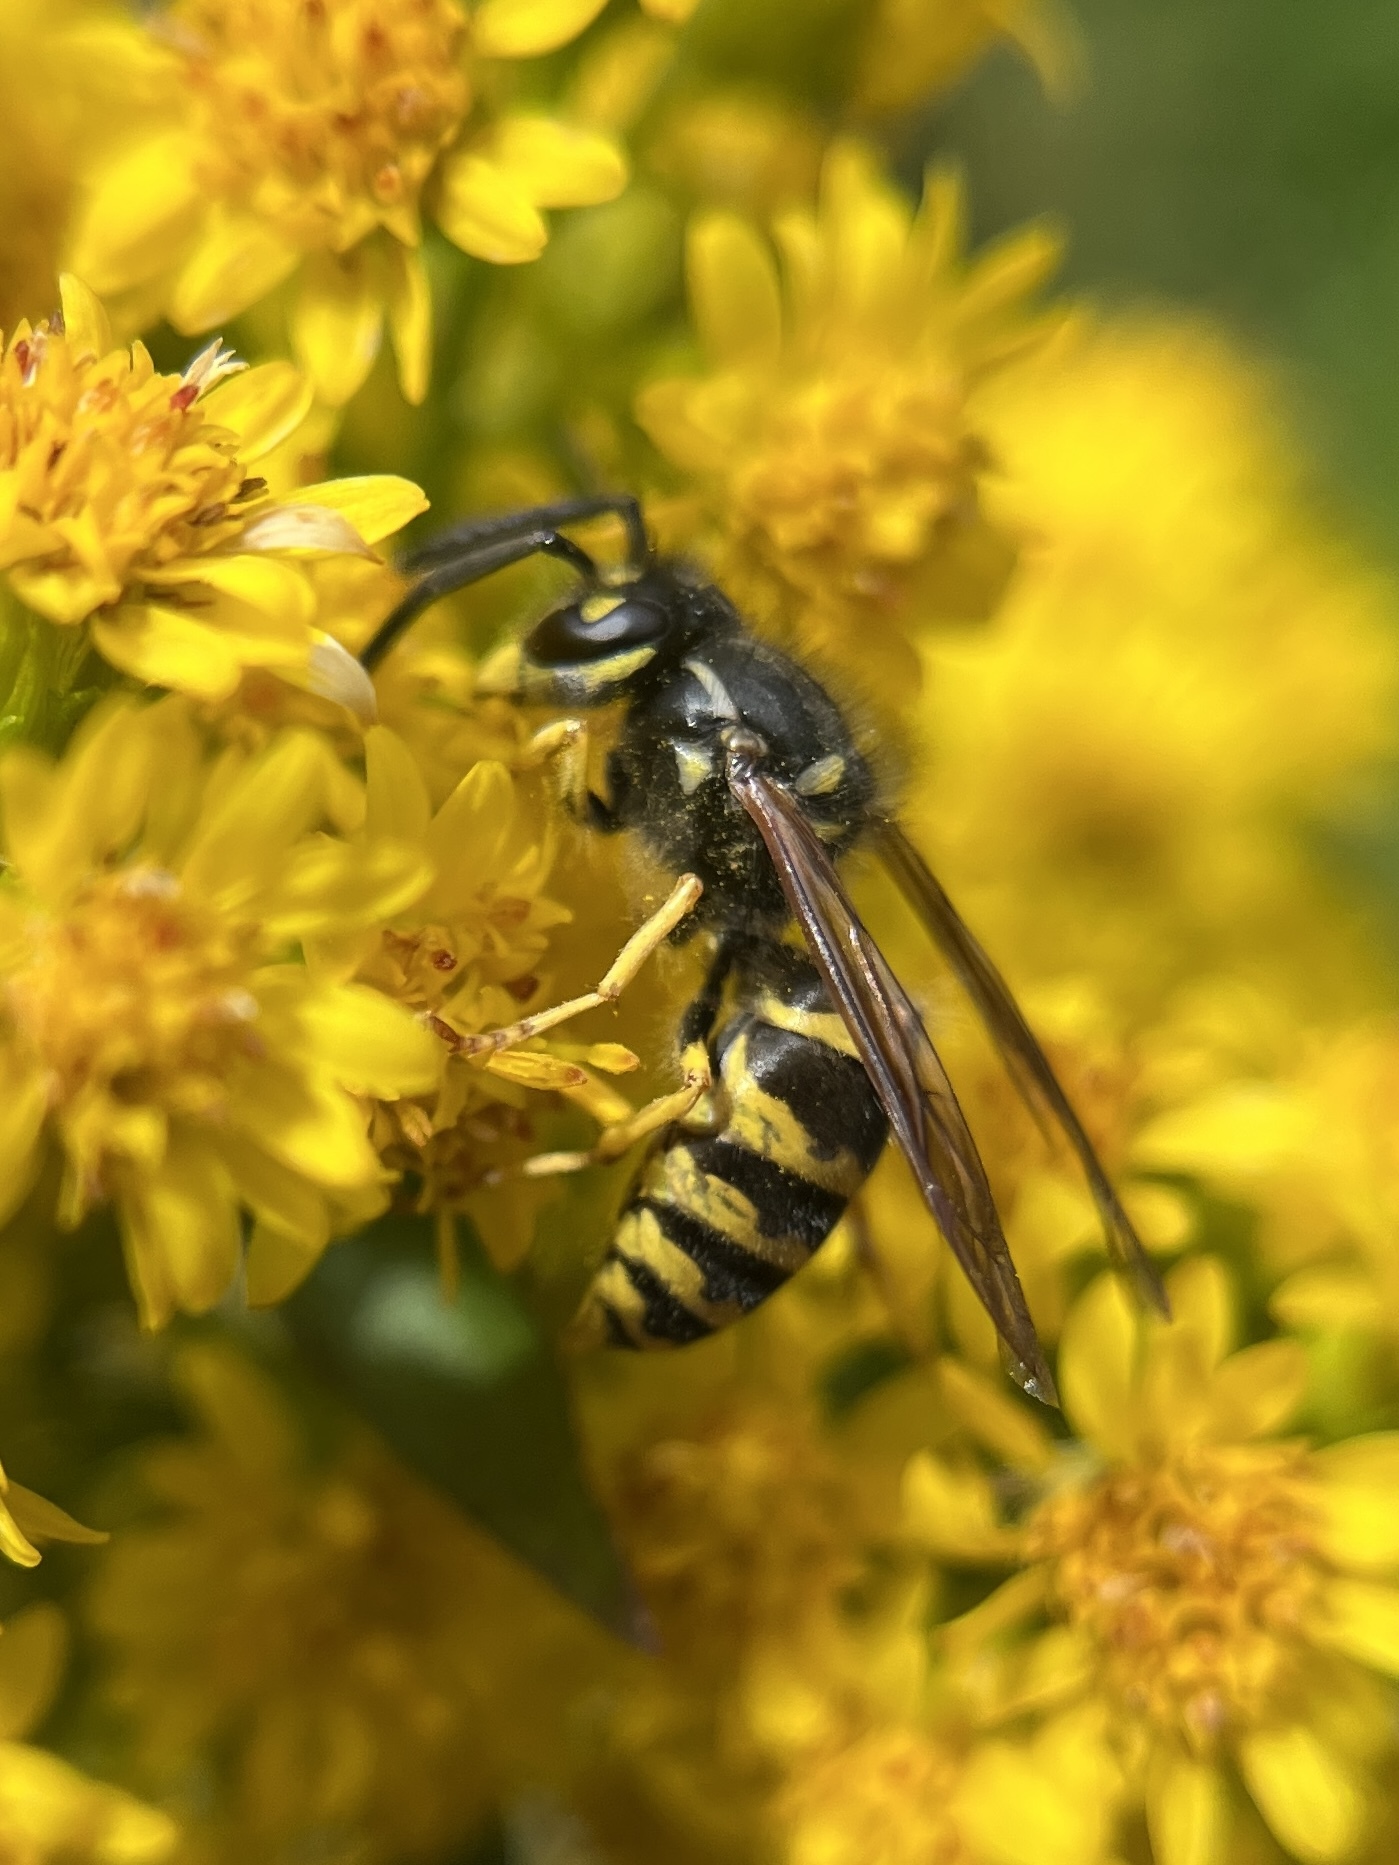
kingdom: Animalia
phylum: Arthropoda
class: Insecta
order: Hymenoptera
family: Vespidae
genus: Vespula
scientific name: Vespula alascensis
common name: Alaska yellowjacket
